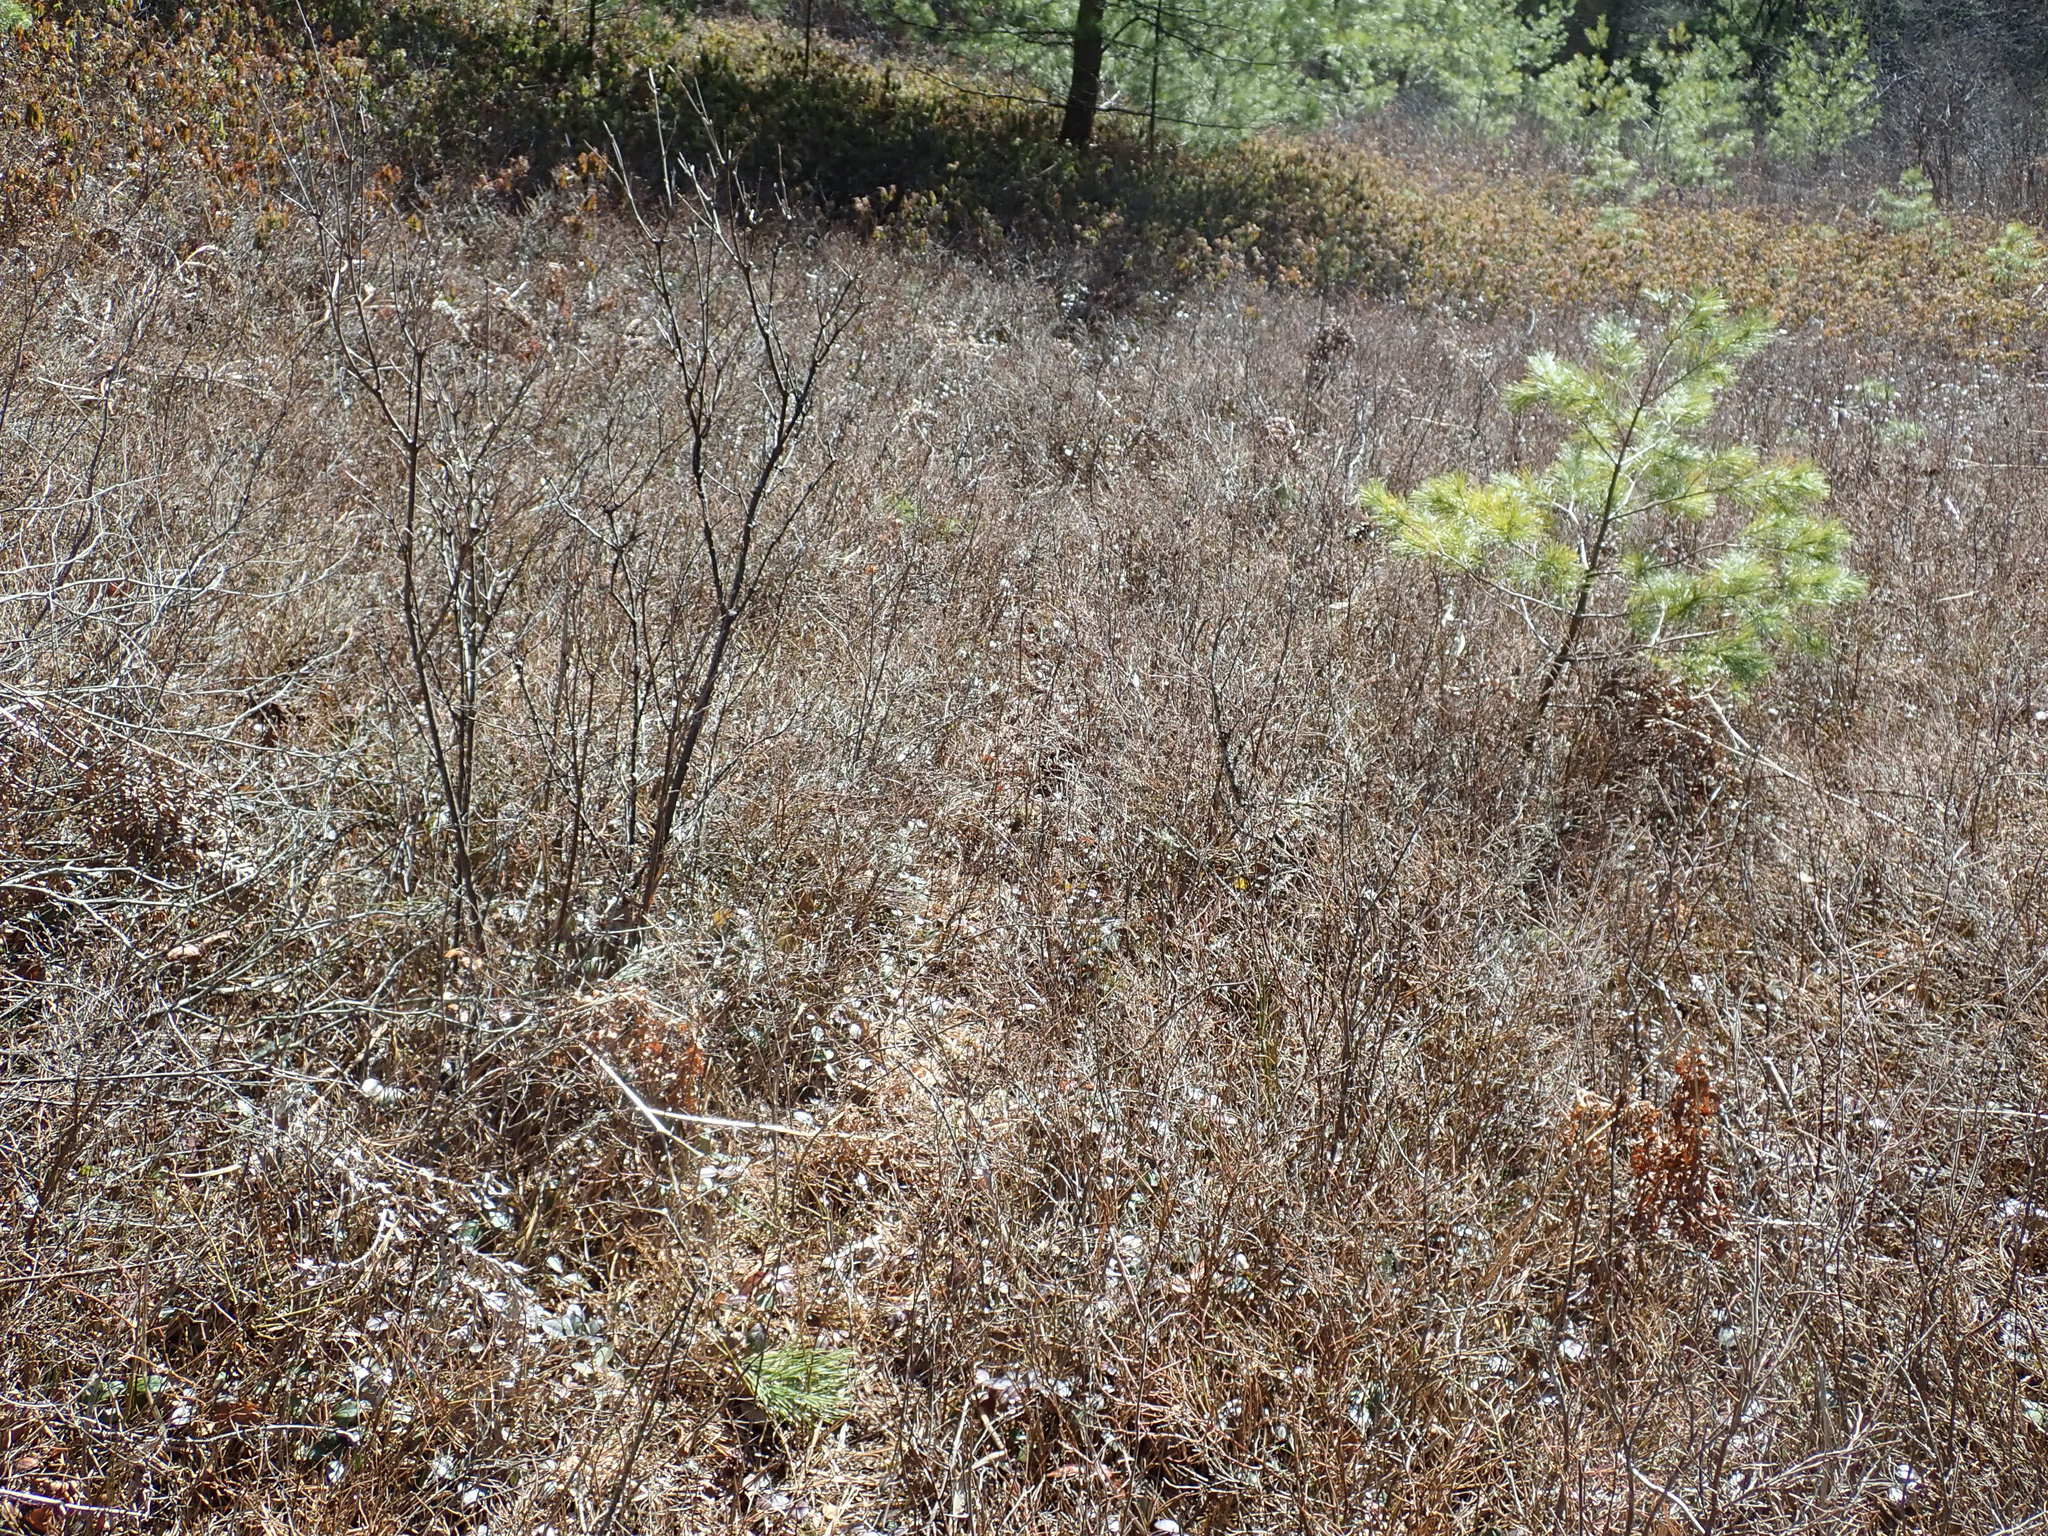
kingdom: Plantae
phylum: Tracheophyta
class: Magnoliopsida
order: Ericales
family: Ericaceae
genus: Vaccinium
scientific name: Vaccinium angustifolium
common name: Early lowbush blueberry
